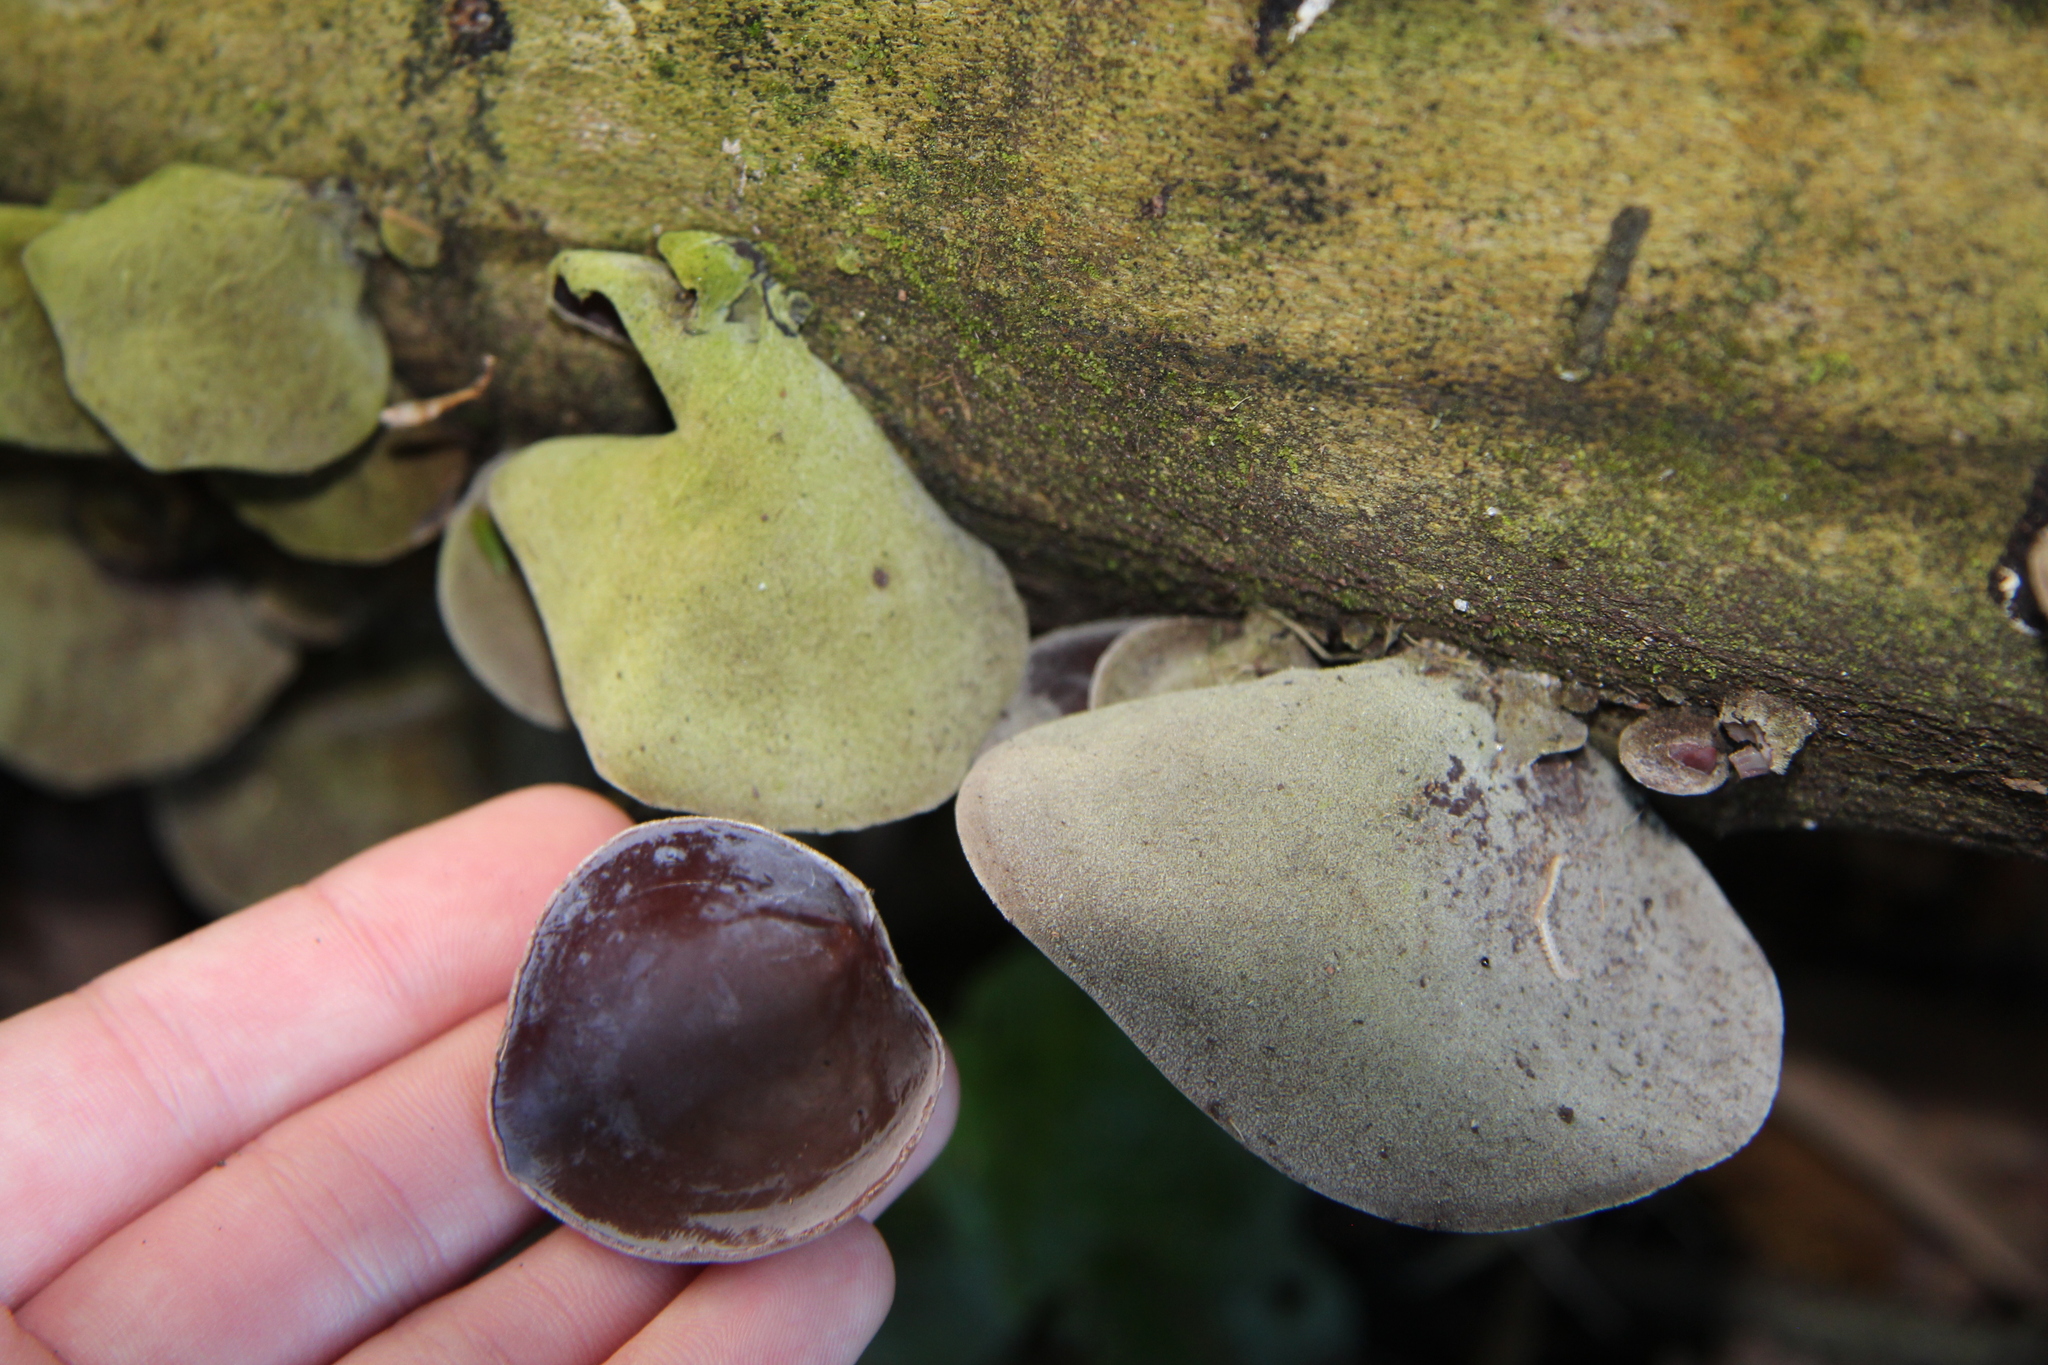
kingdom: Fungi
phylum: Basidiomycota
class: Agaricomycetes
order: Auriculariales
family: Auriculariaceae
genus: Auricularia
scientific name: Auricularia cornea
